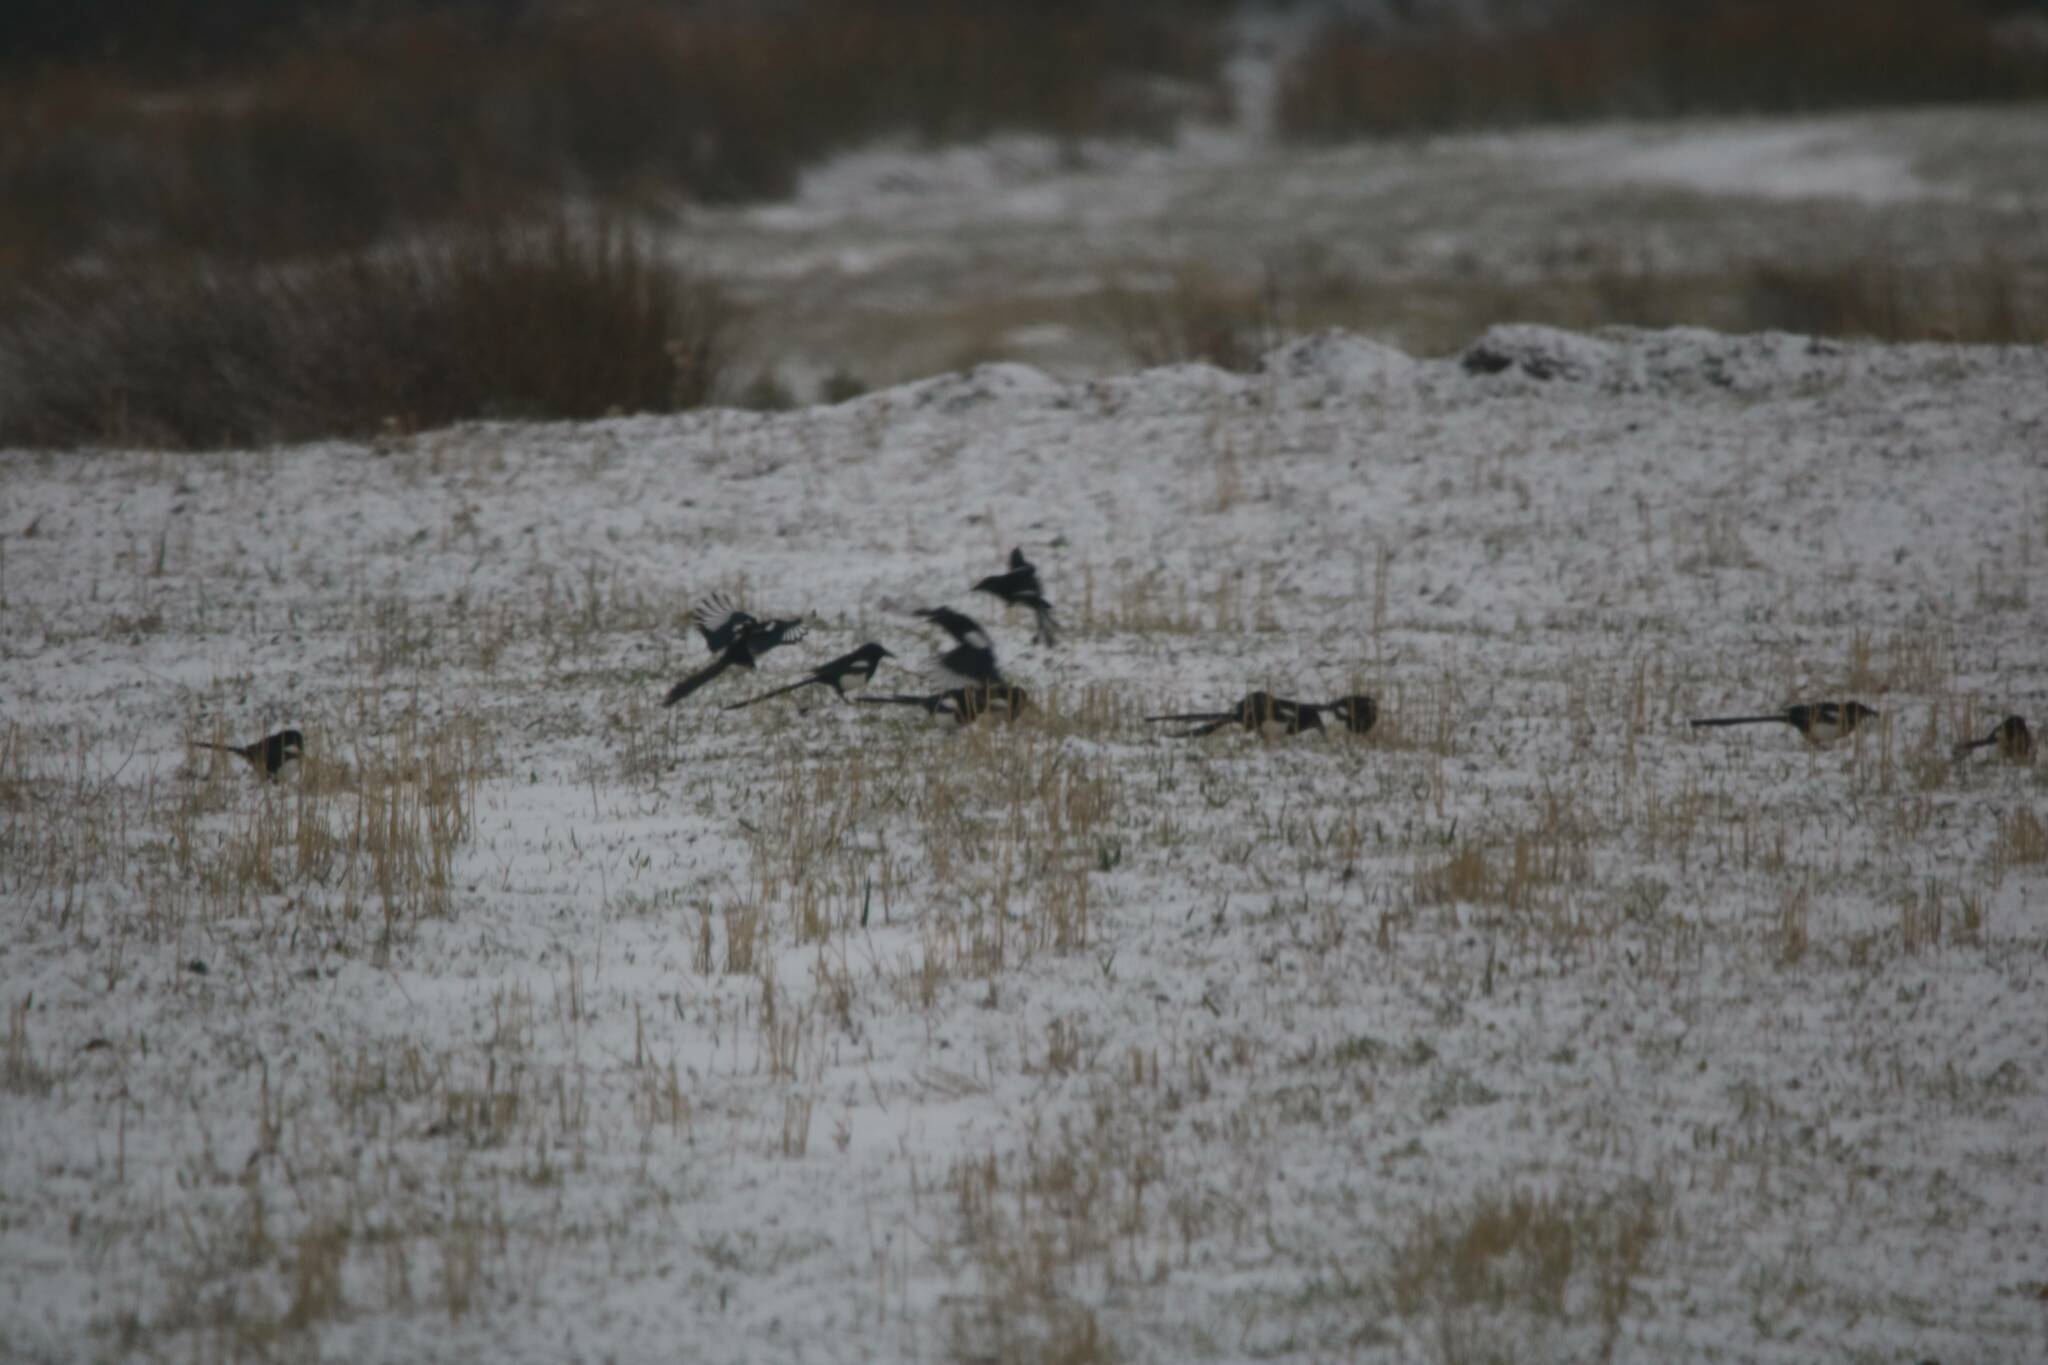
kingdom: Animalia
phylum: Chordata
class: Aves
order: Passeriformes
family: Corvidae
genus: Pica
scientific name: Pica mauritanica
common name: Maghreb magpie
